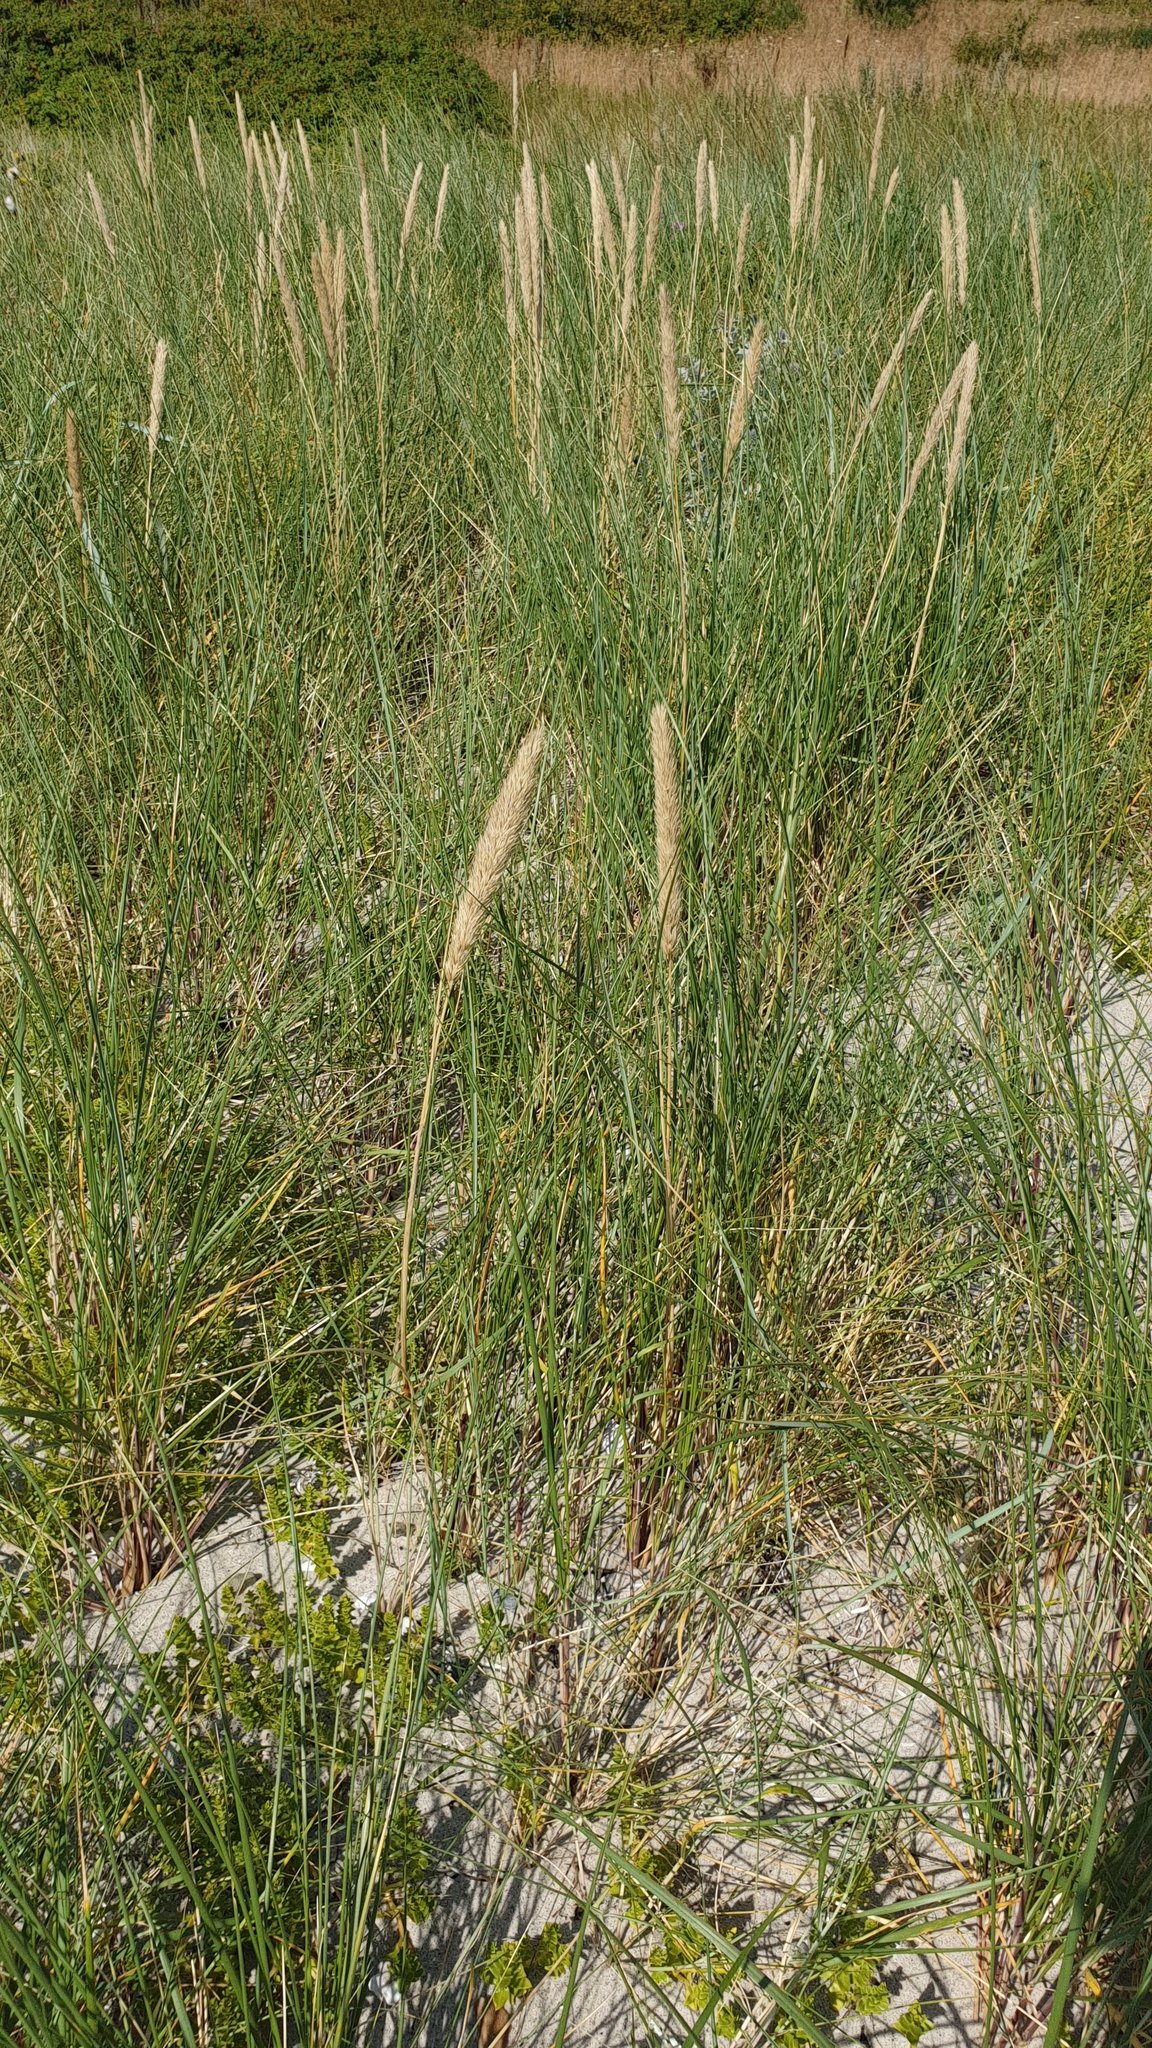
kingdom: Plantae
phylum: Tracheophyta
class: Liliopsida
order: Poales
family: Poaceae
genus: Calamagrostis
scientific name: Calamagrostis arenaria
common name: European beachgrass
